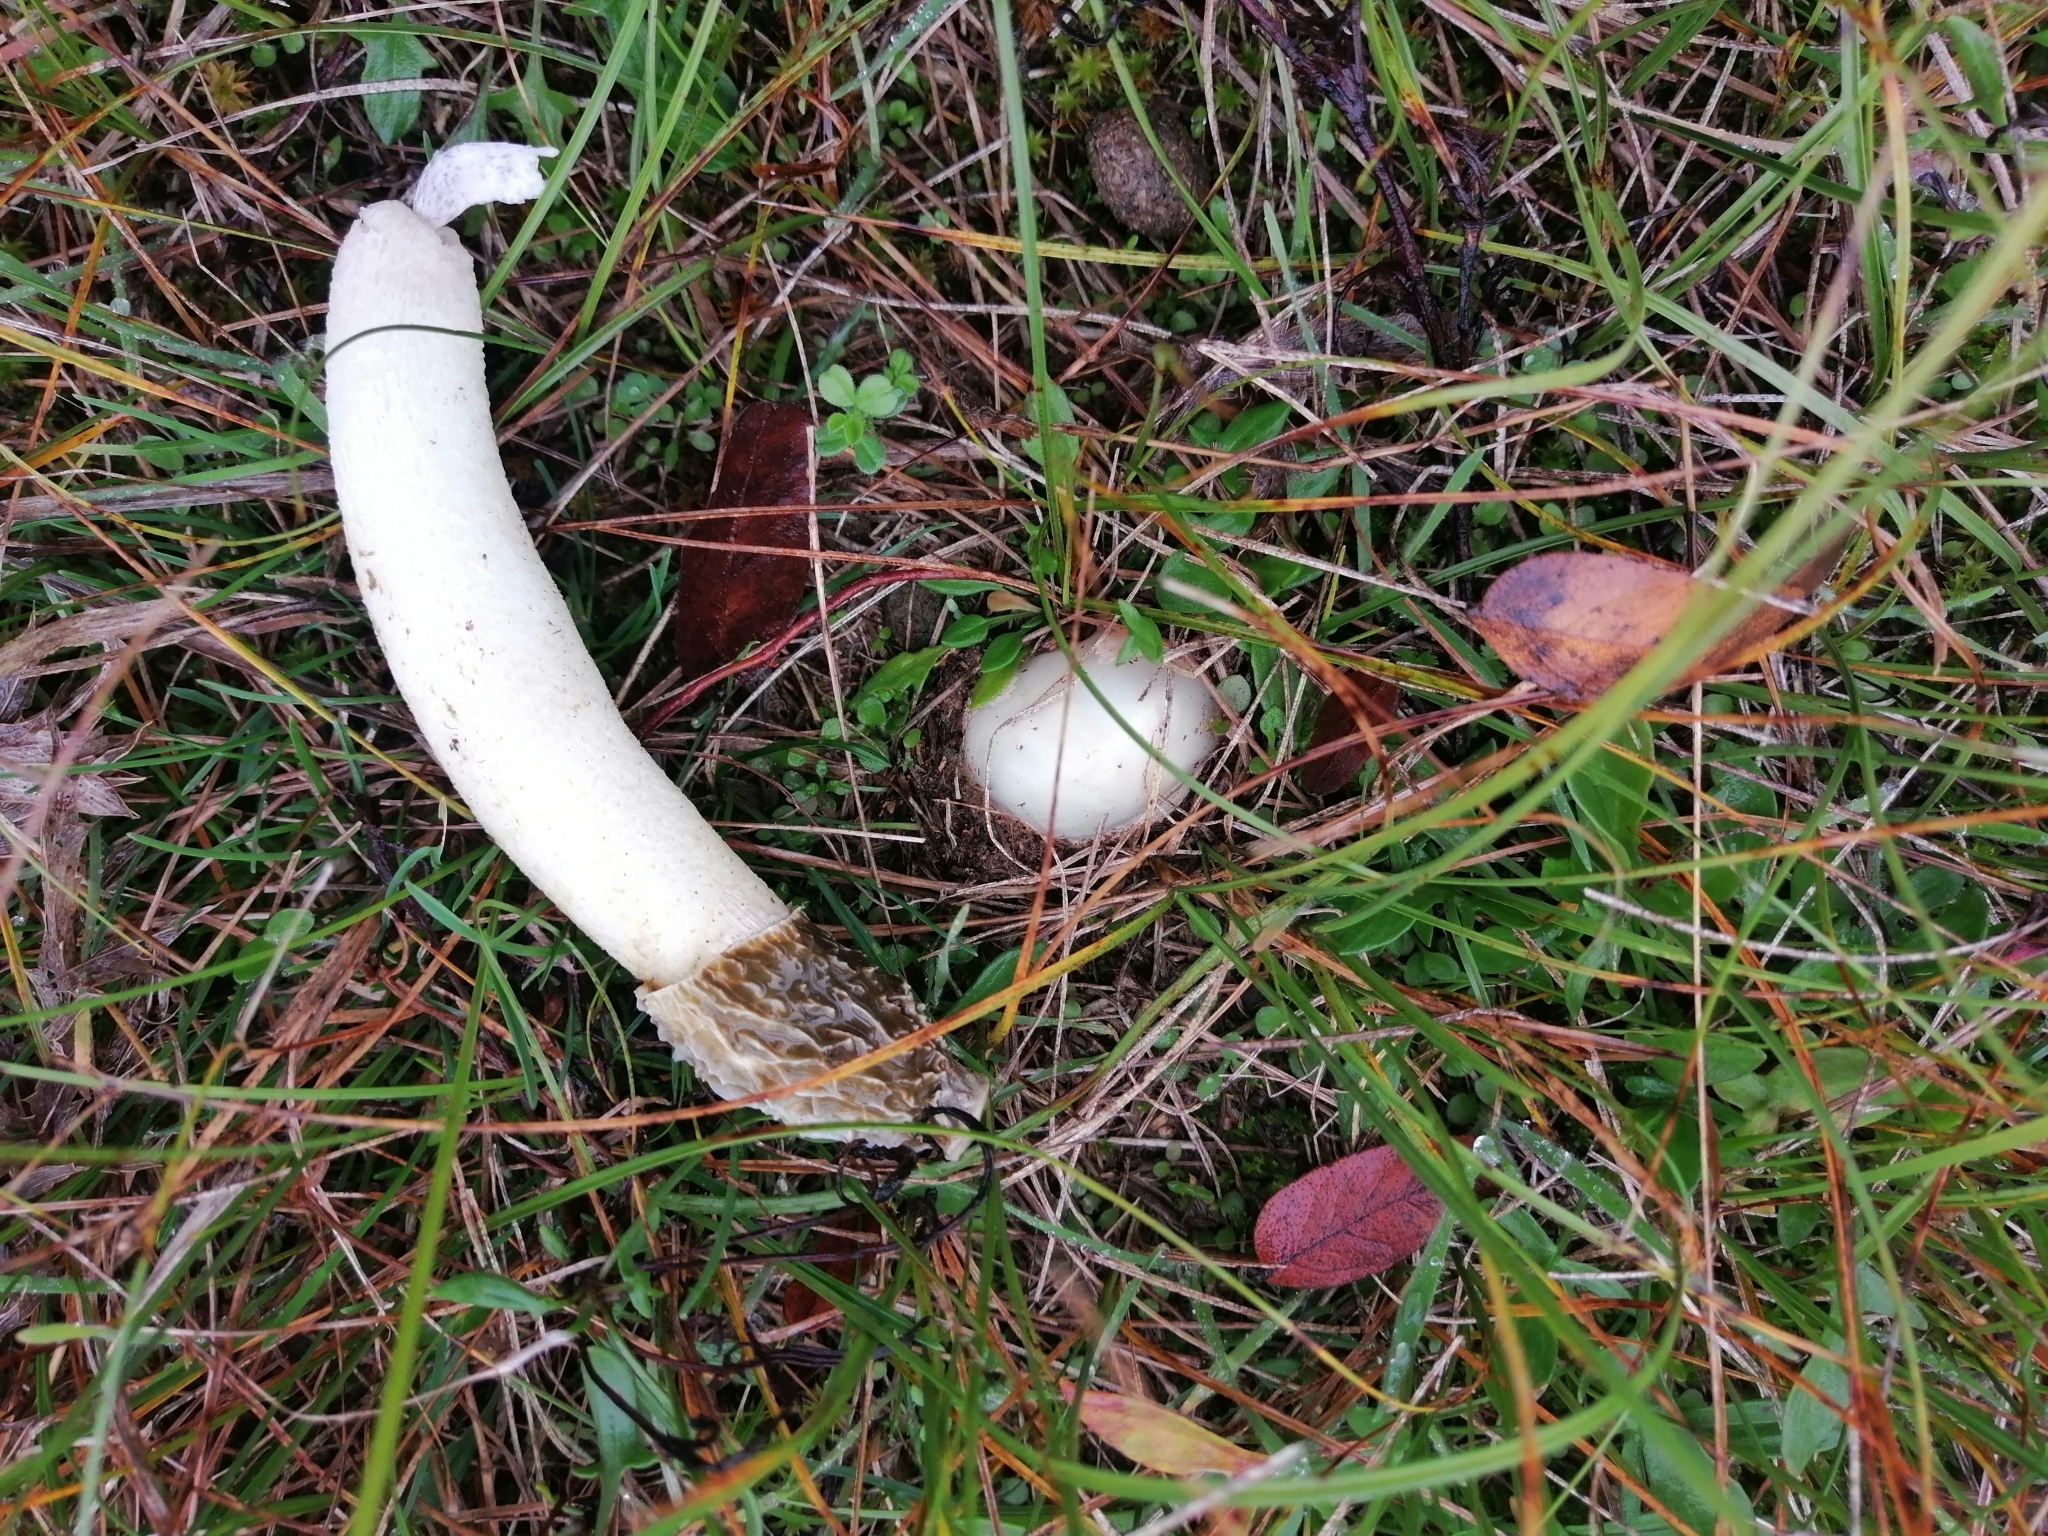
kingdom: Fungi
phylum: Basidiomycota
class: Agaricomycetes
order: Phallales
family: Phallaceae
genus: Phallus
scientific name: Phallus hadriani
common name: Sand stinkhorn
